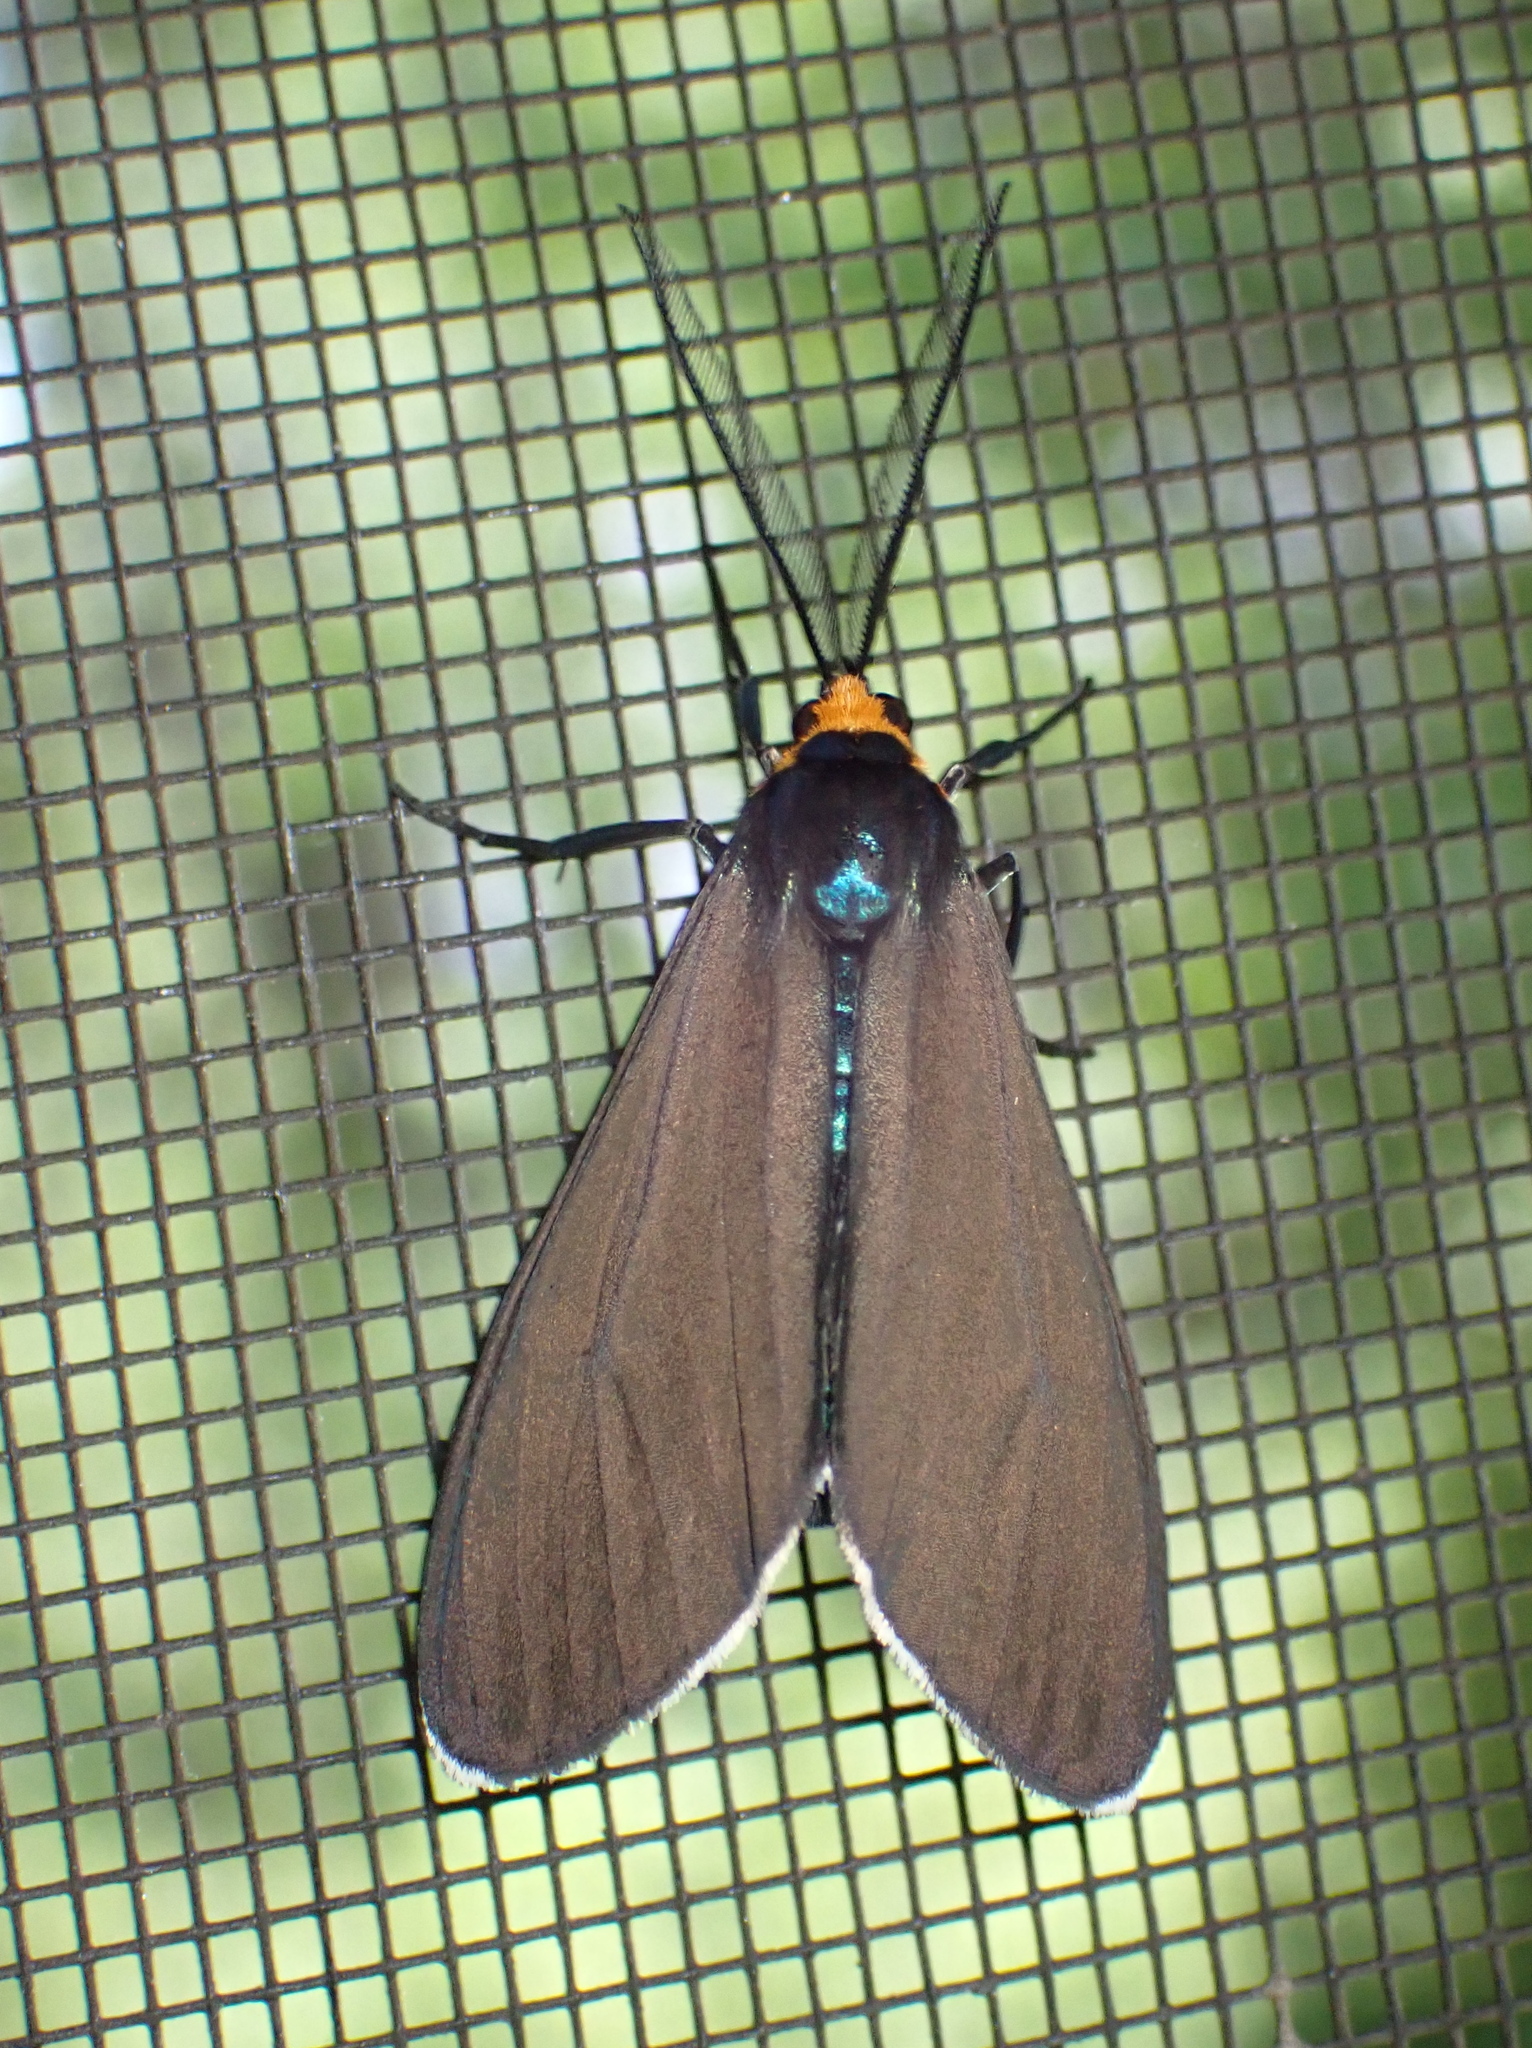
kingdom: Animalia
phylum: Arthropoda
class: Insecta
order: Lepidoptera
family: Erebidae
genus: Ctenucha
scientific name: Ctenucha virginica
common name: Virginia ctenucha moth
